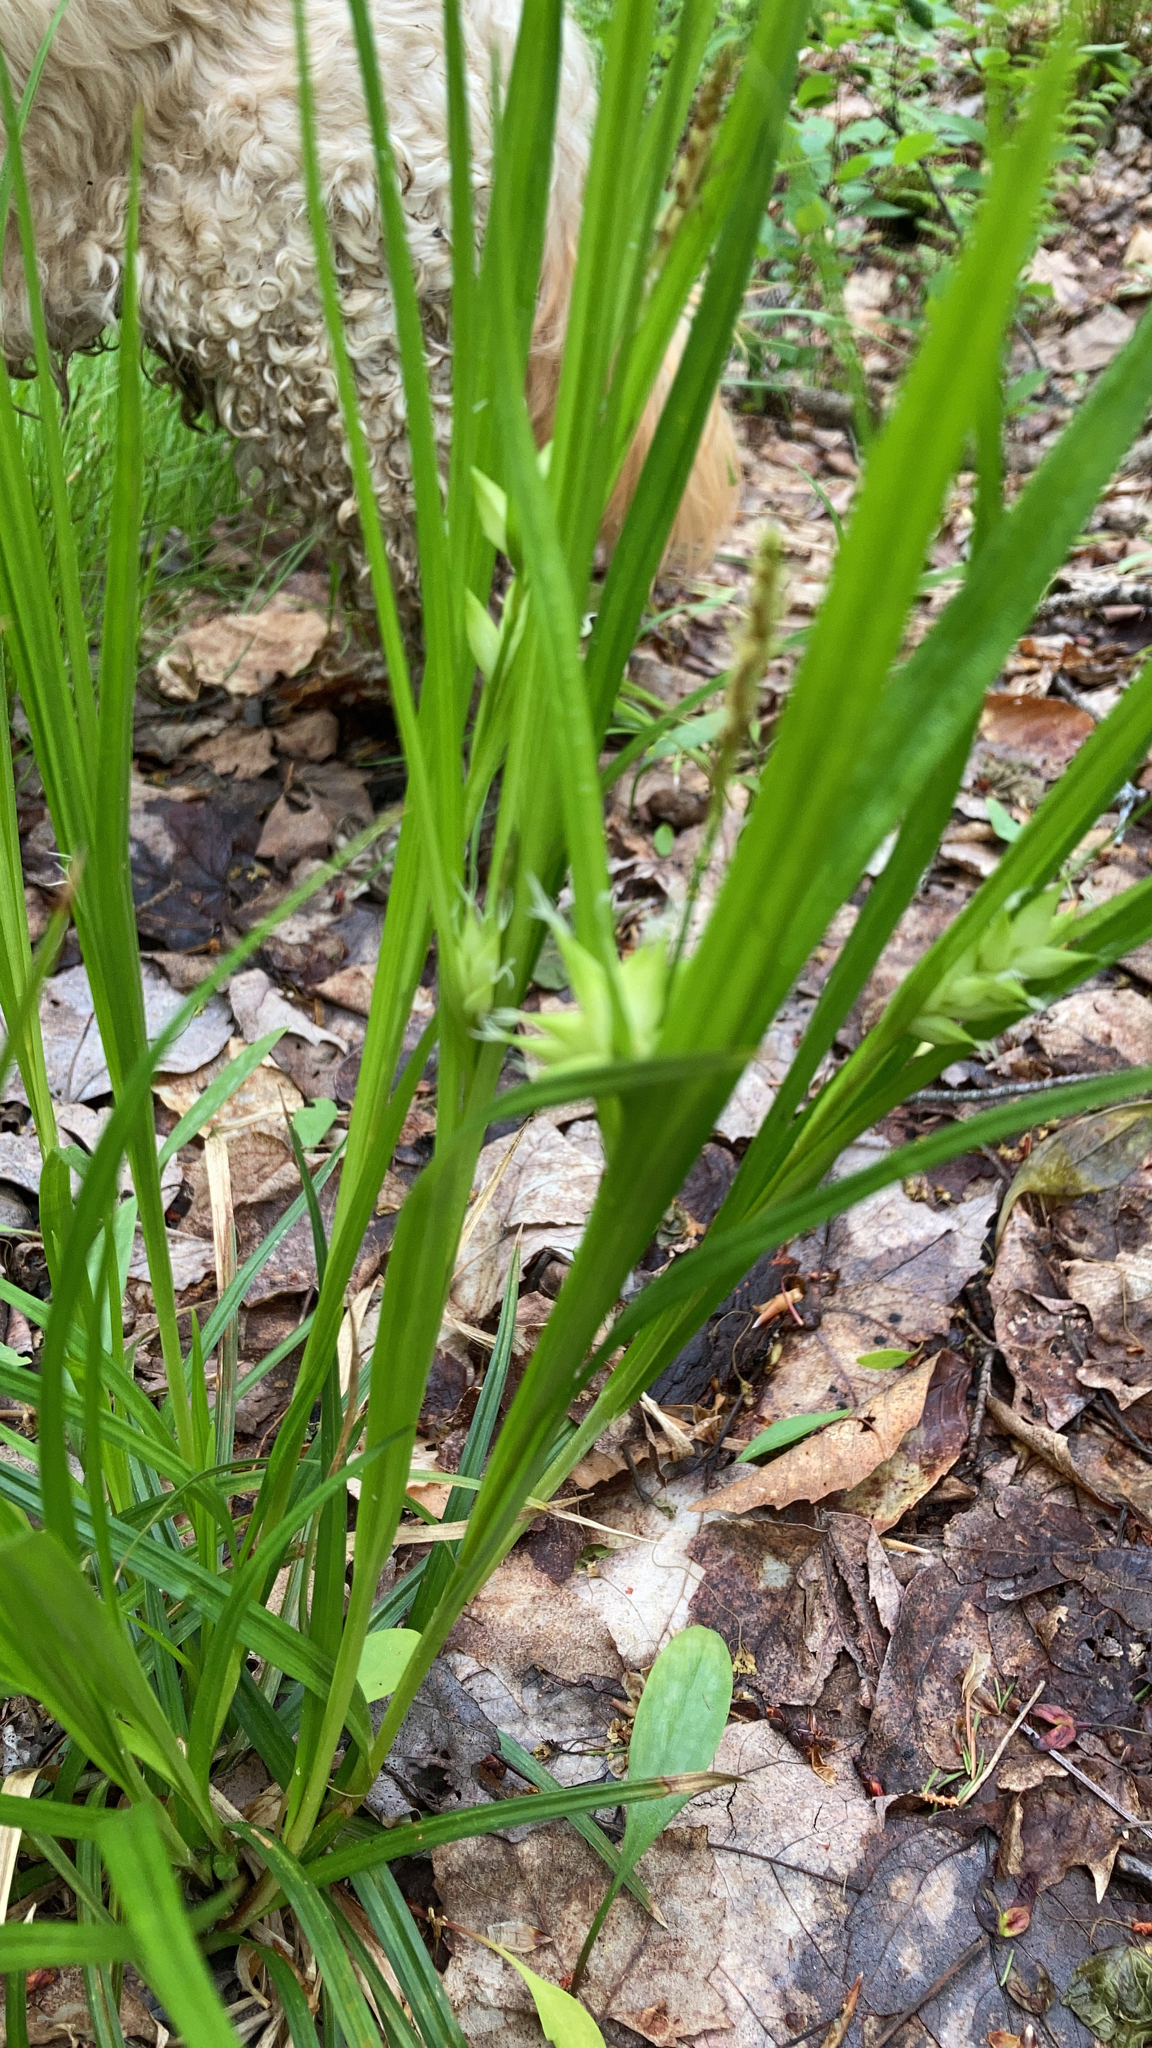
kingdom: Plantae
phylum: Tracheophyta
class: Liliopsida
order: Poales
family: Cyperaceae
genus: Carex
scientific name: Carex intumescens
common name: Greater bladder sedge
